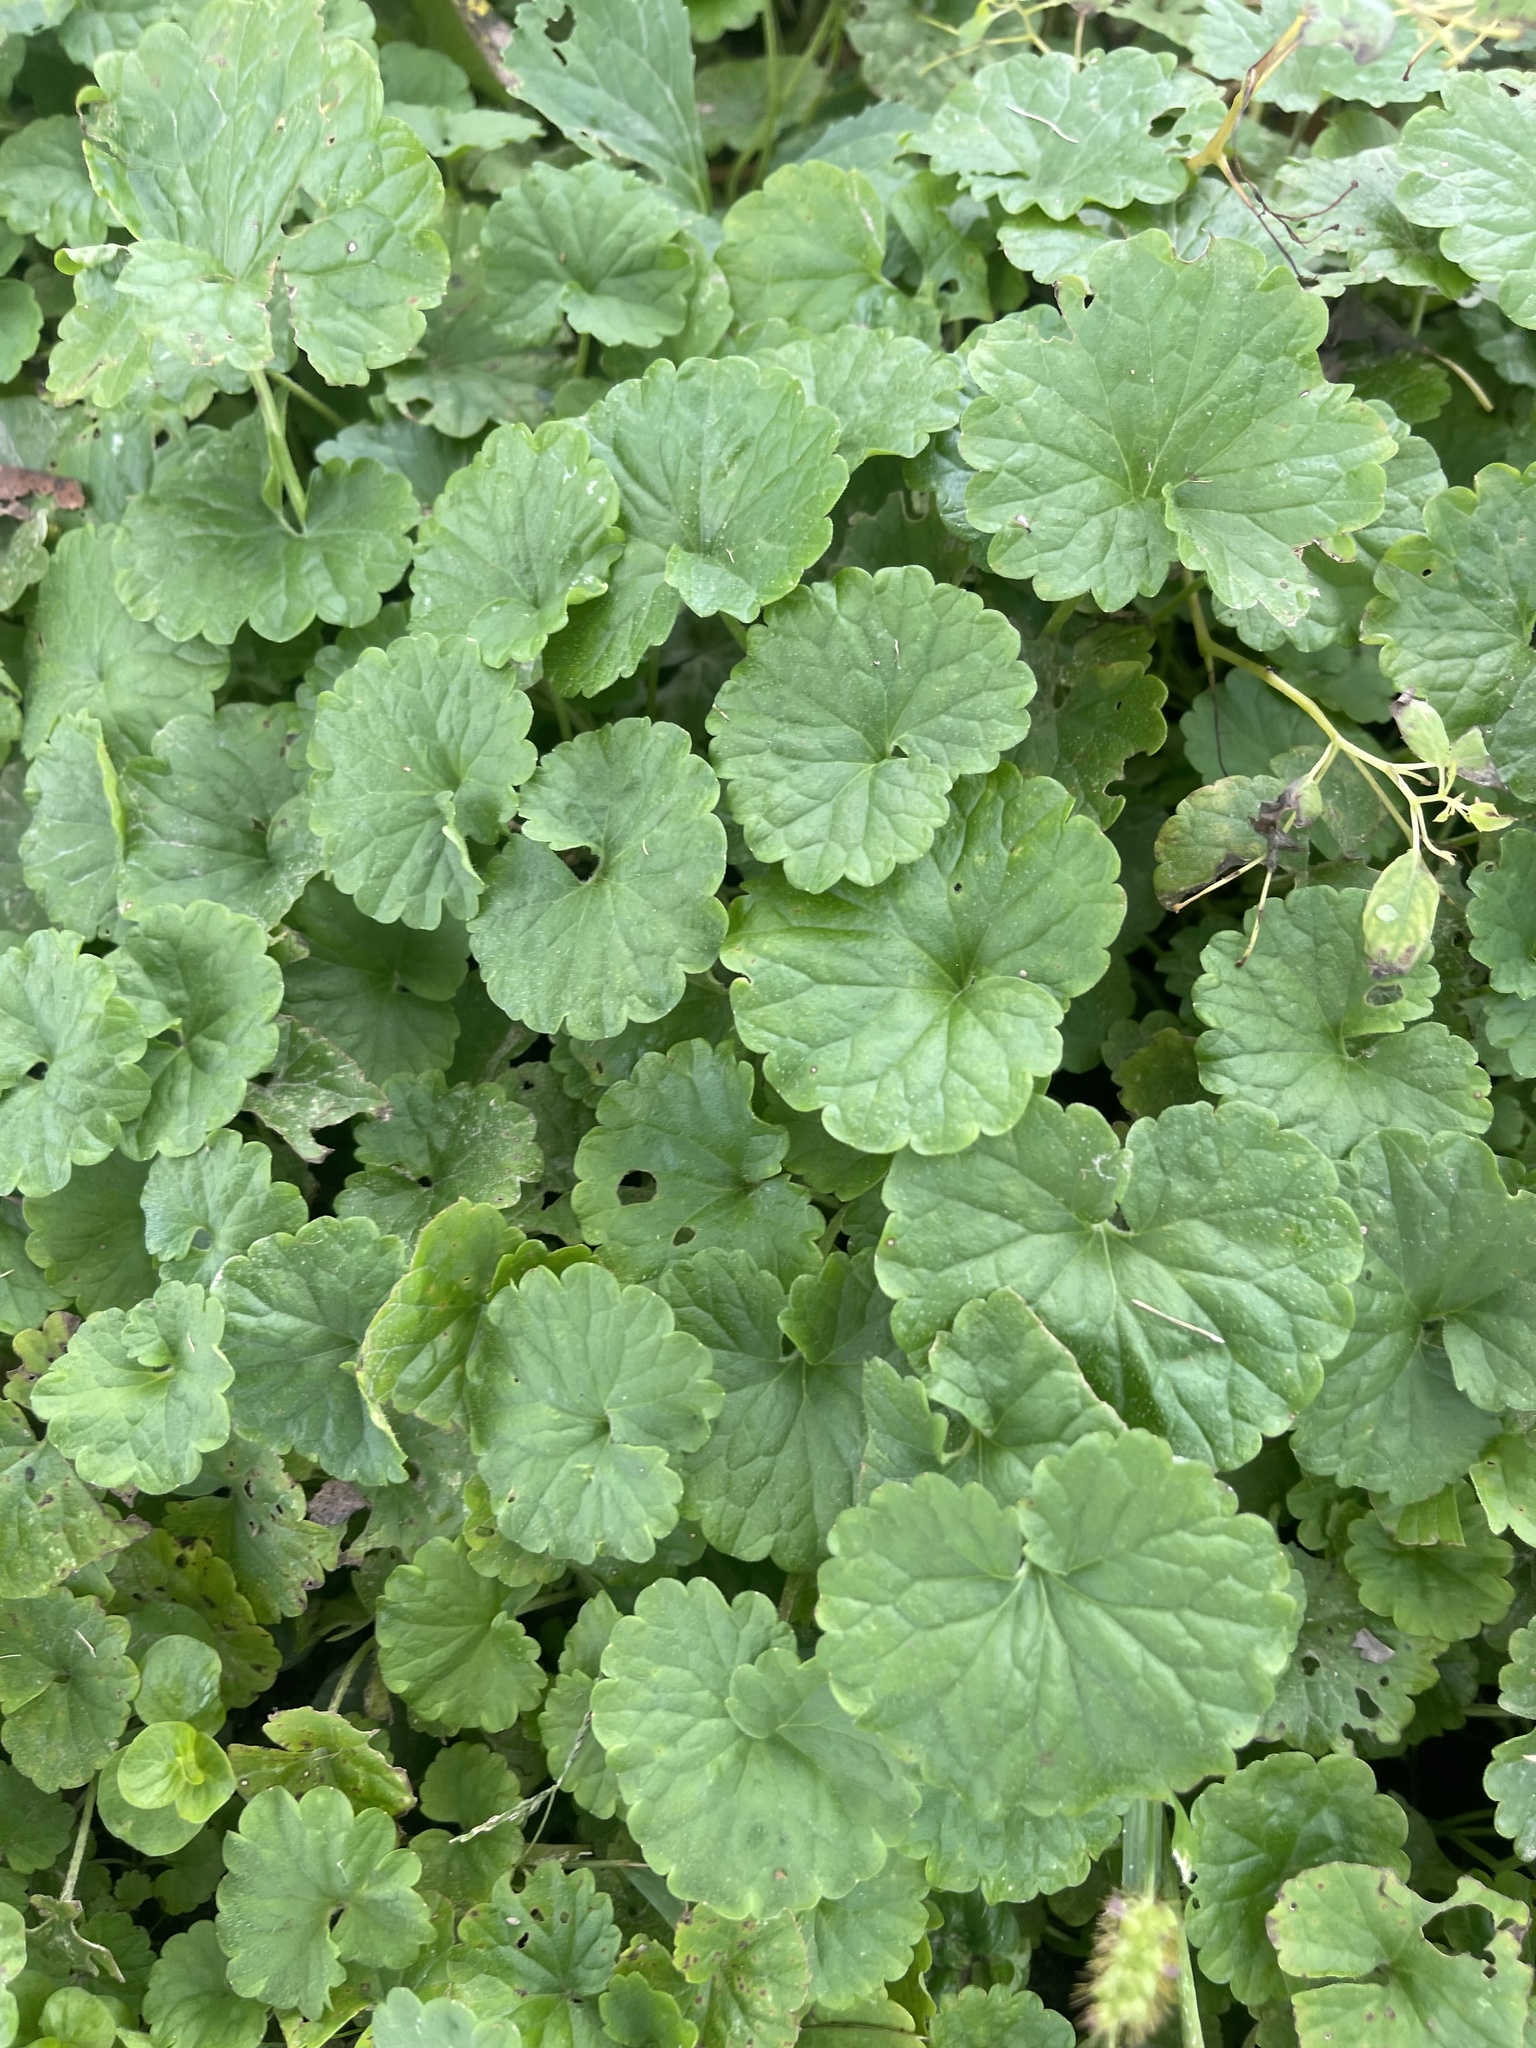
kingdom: Plantae
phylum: Tracheophyta
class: Magnoliopsida
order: Lamiales
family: Lamiaceae
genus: Glechoma
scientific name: Glechoma hederacea
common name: Ground ivy
